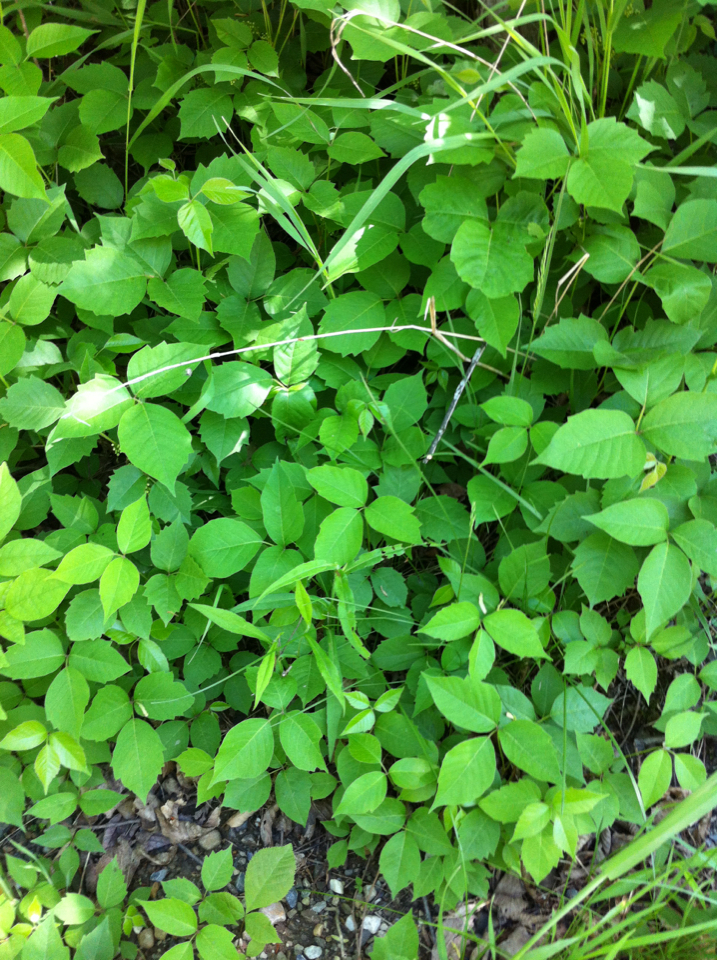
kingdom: Plantae
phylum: Tracheophyta
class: Magnoliopsida
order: Sapindales
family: Anacardiaceae
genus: Toxicodendron
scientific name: Toxicodendron radicans
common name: Poison ivy
